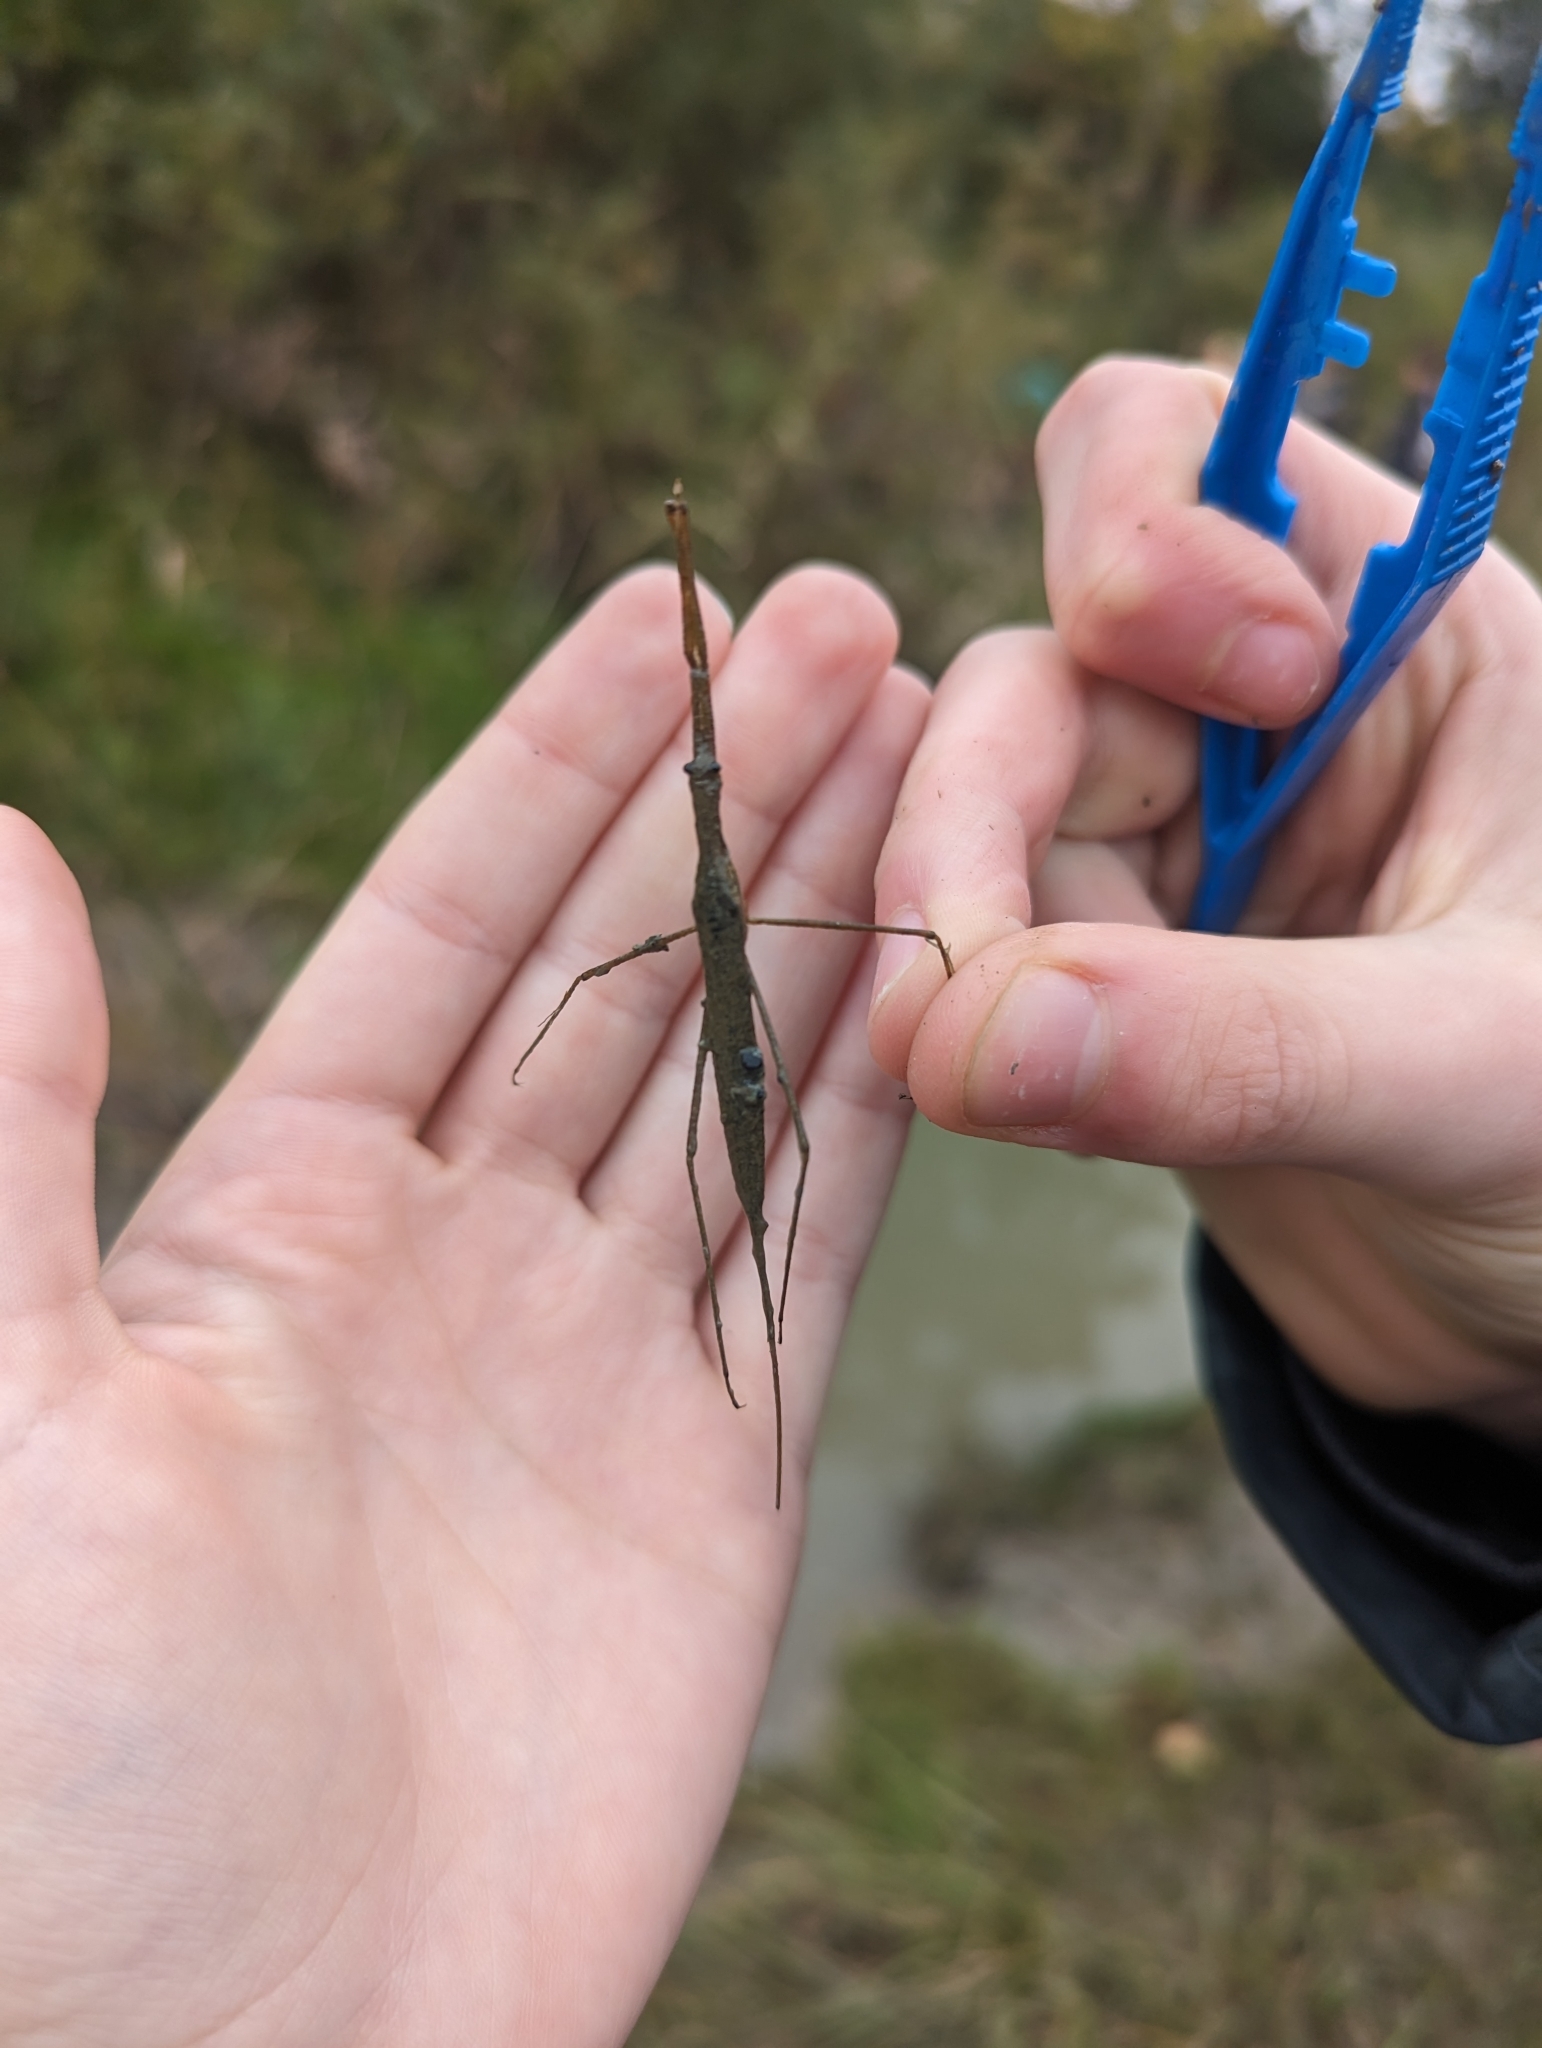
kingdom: Animalia
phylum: Arthropoda
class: Insecta
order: Hemiptera
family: Nepidae
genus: Ranatra
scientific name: Ranatra
